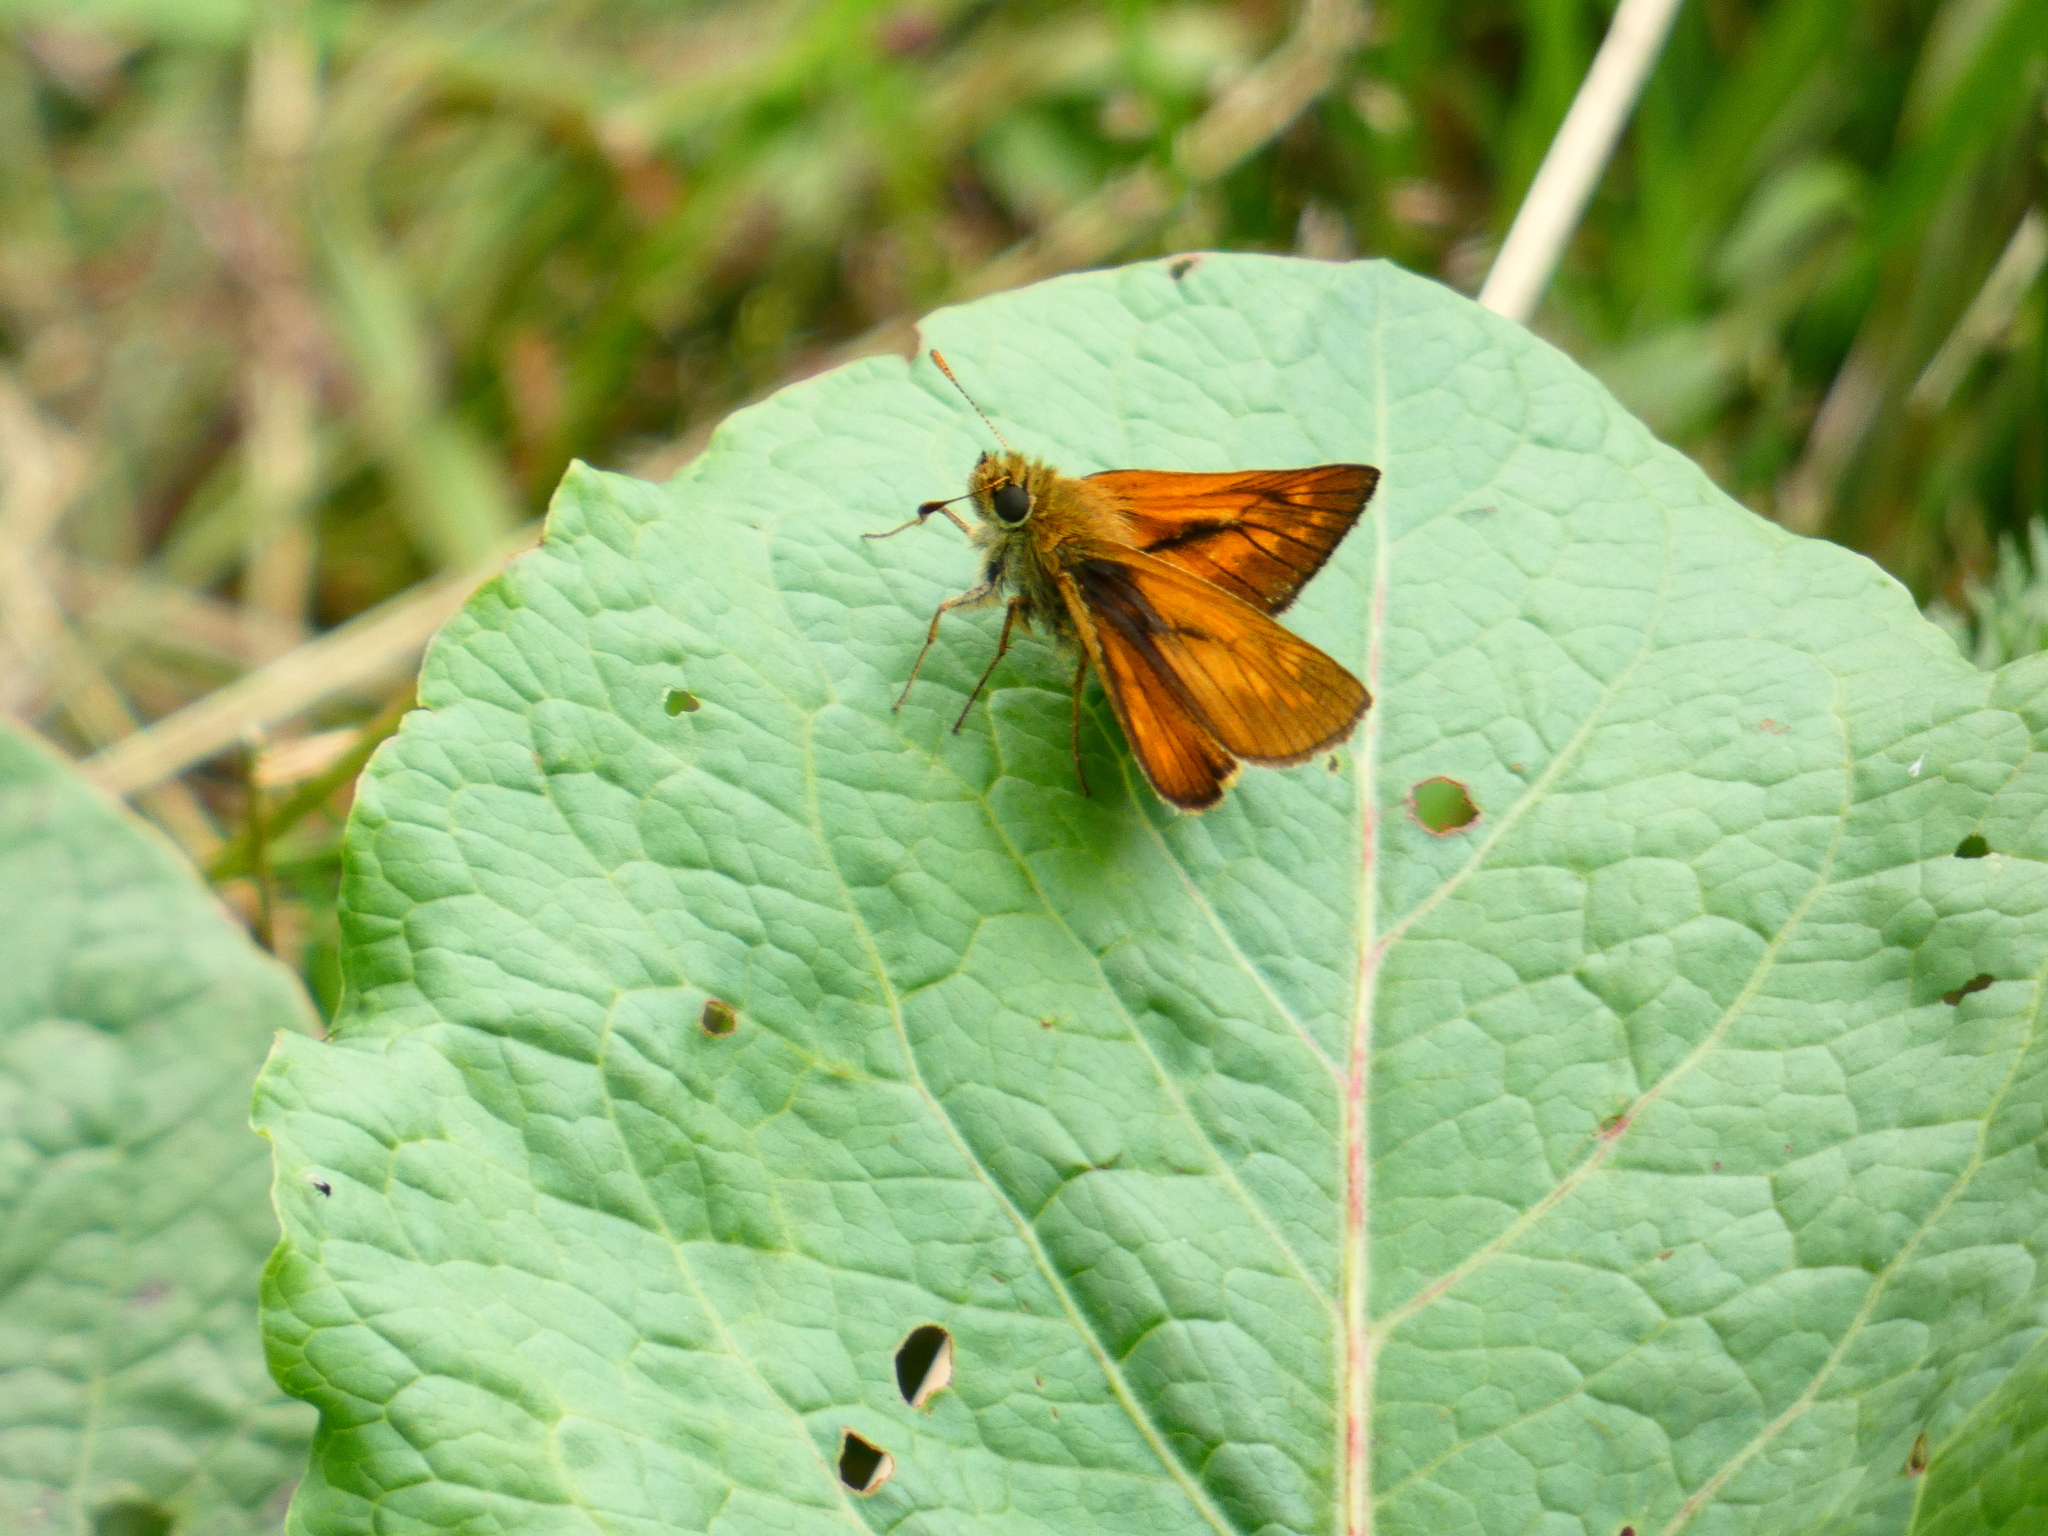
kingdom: Animalia
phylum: Arthropoda
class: Insecta
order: Lepidoptera
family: Hesperiidae
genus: Ochlodes
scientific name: Ochlodes venata
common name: Large skipper
